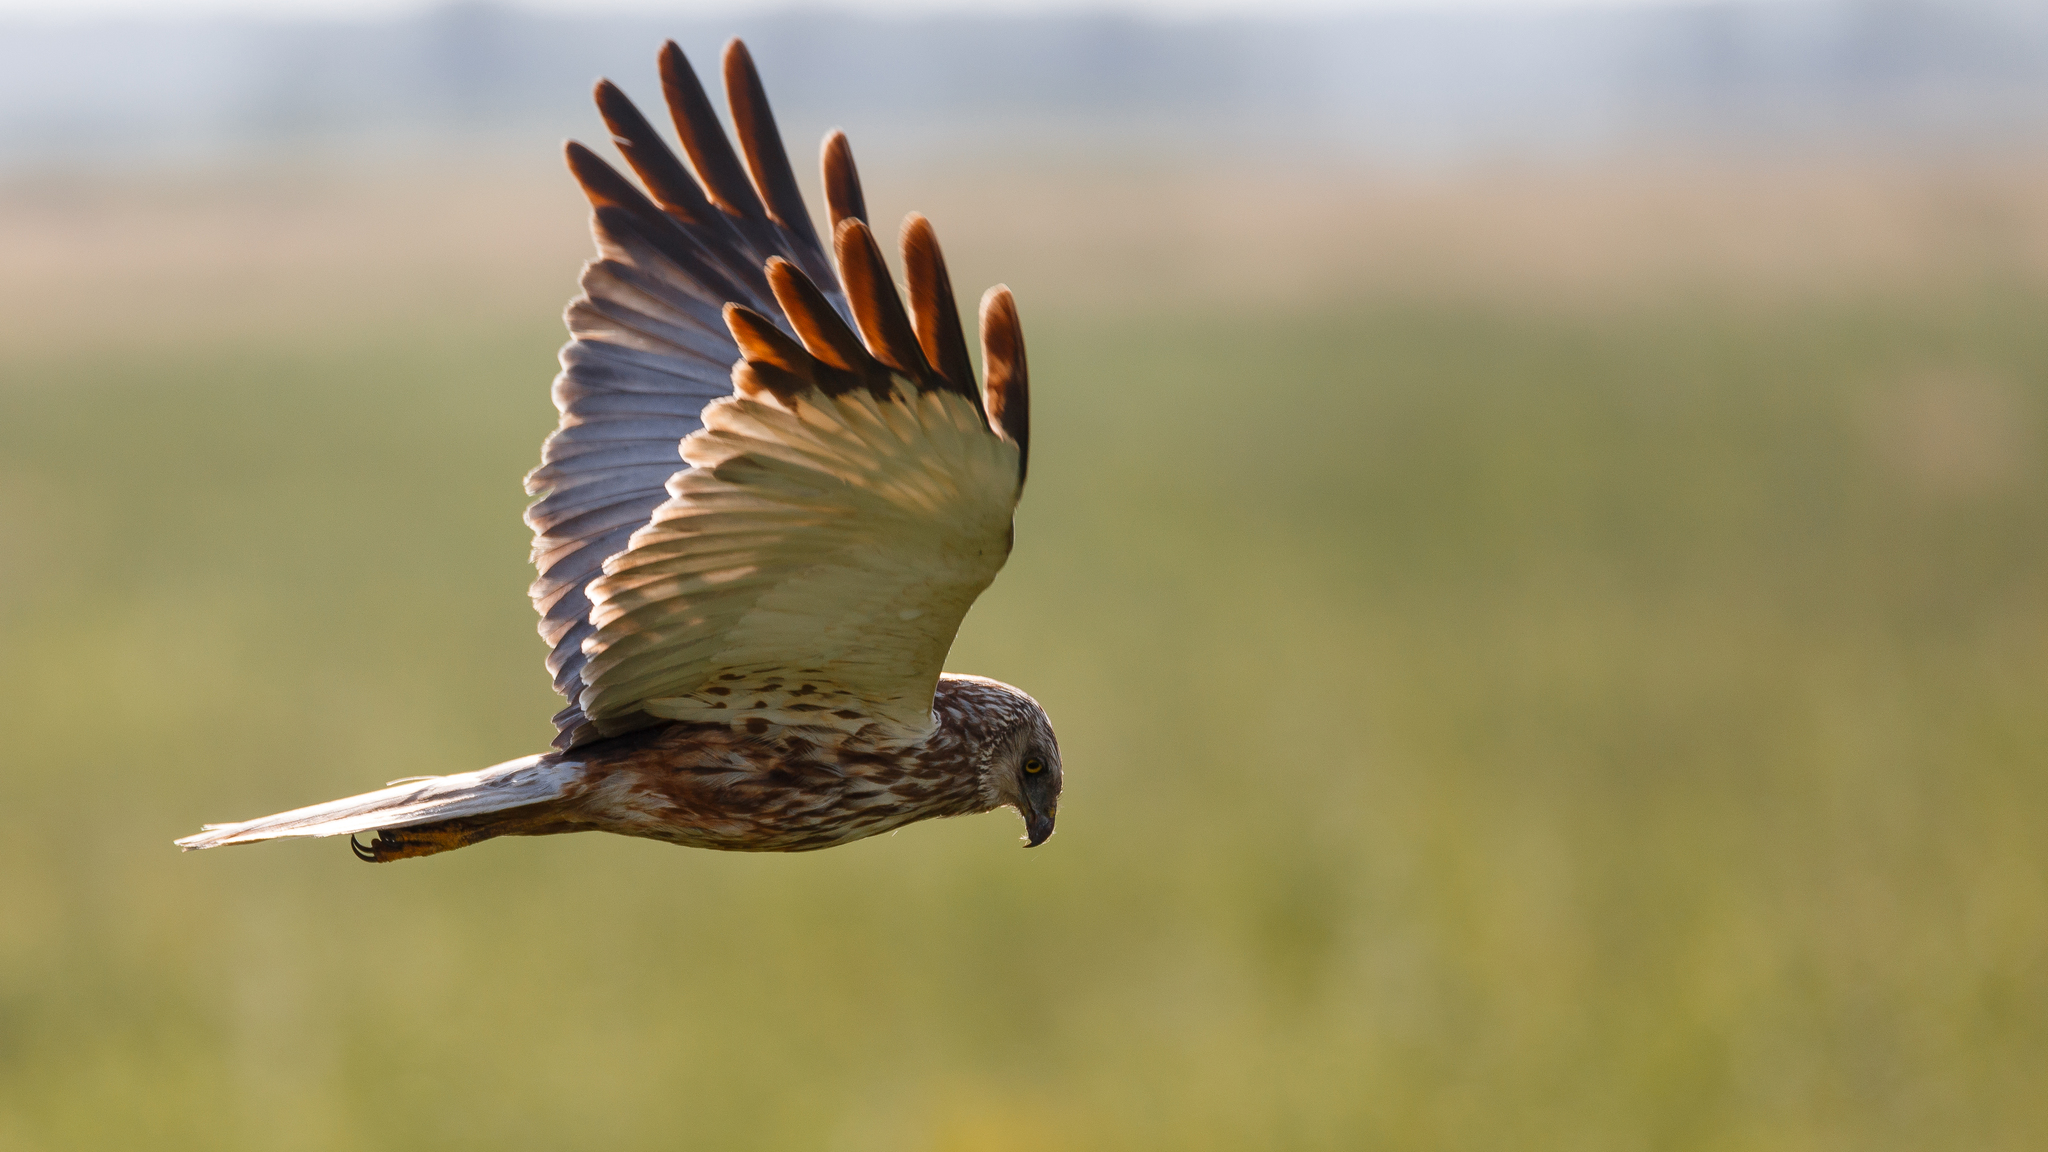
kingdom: Animalia
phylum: Chordata
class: Aves
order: Accipitriformes
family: Accipitridae
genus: Circus
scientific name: Circus aeruginosus
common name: Western marsh harrier
